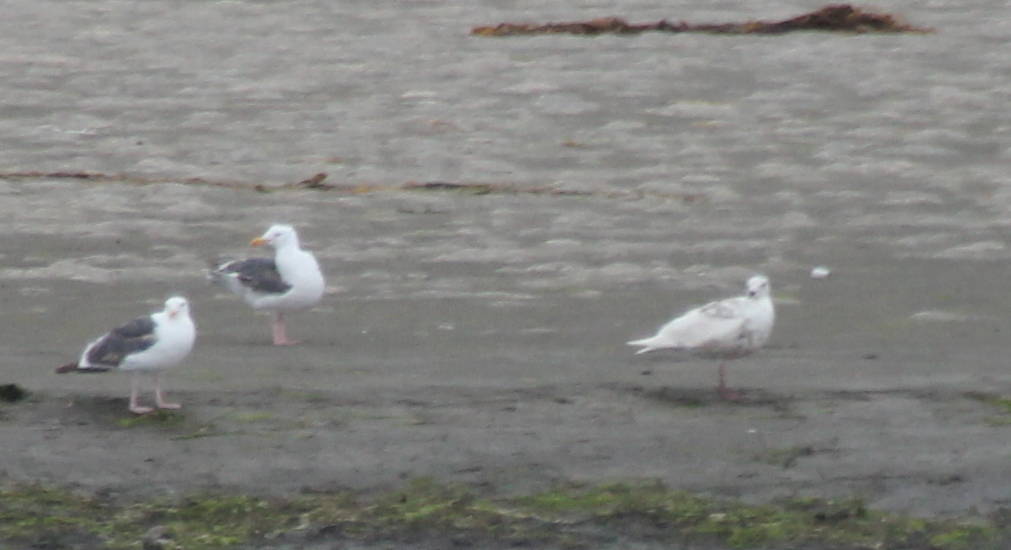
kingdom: Animalia
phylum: Chordata
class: Aves
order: Charadriiformes
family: Laridae
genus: Larus
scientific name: Larus glaucescens
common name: Glaucous-winged gull
